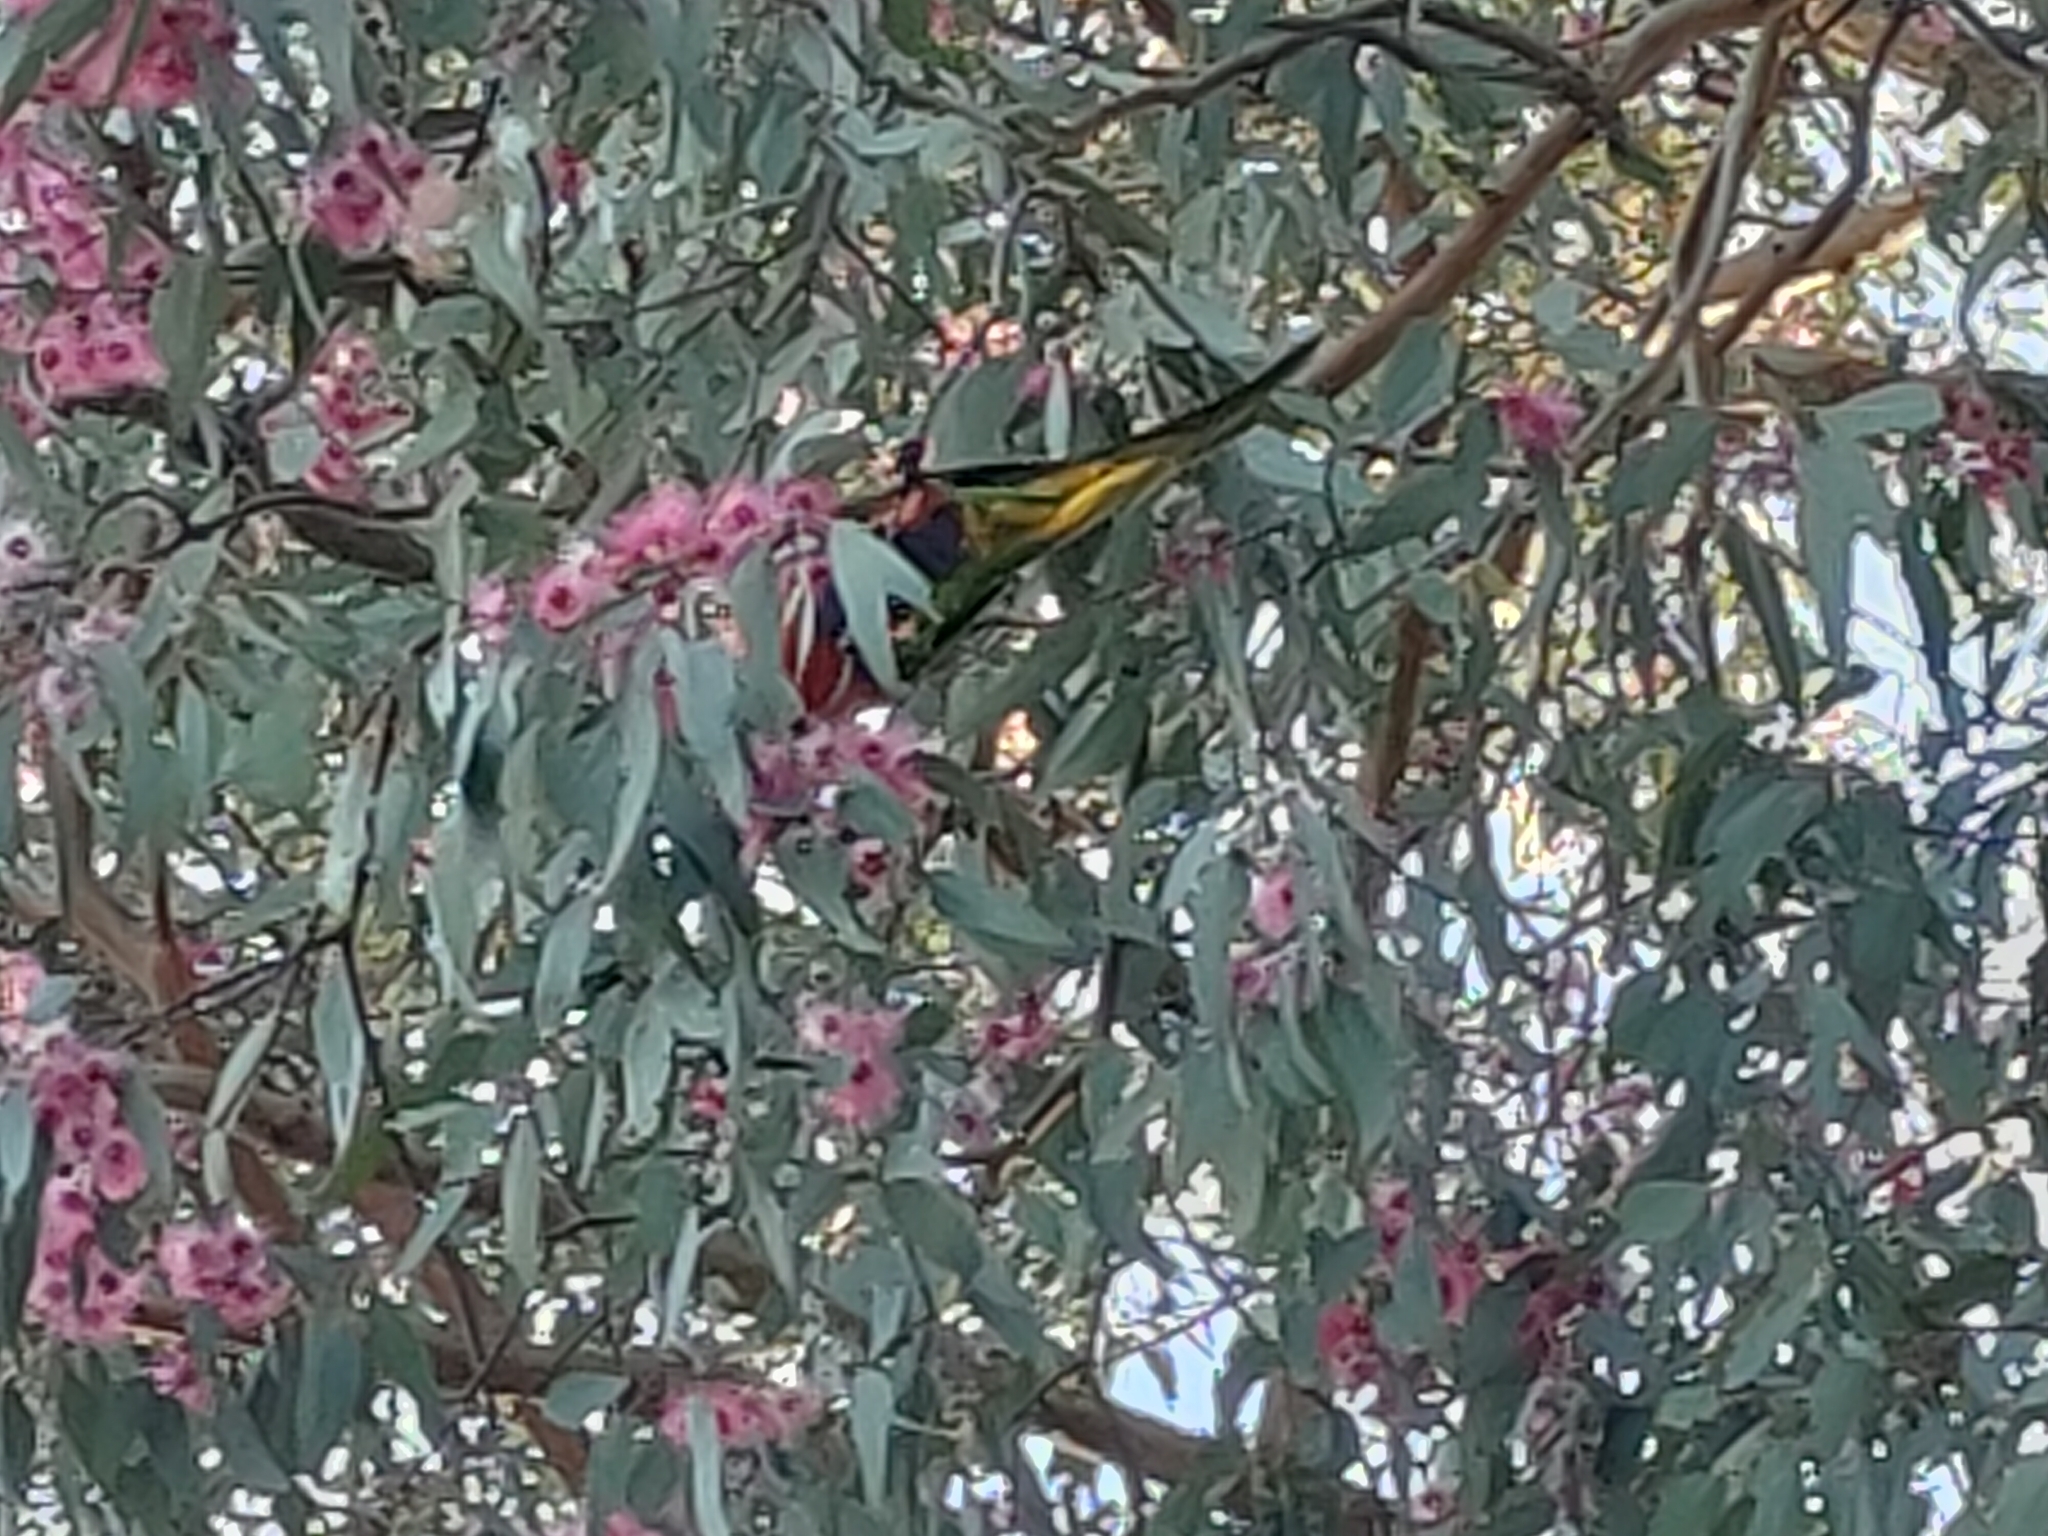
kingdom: Animalia
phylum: Chordata
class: Aves
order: Psittaciformes
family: Psittacidae
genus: Trichoglossus
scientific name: Trichoglossus haematodus
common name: Coconut lorikeet
